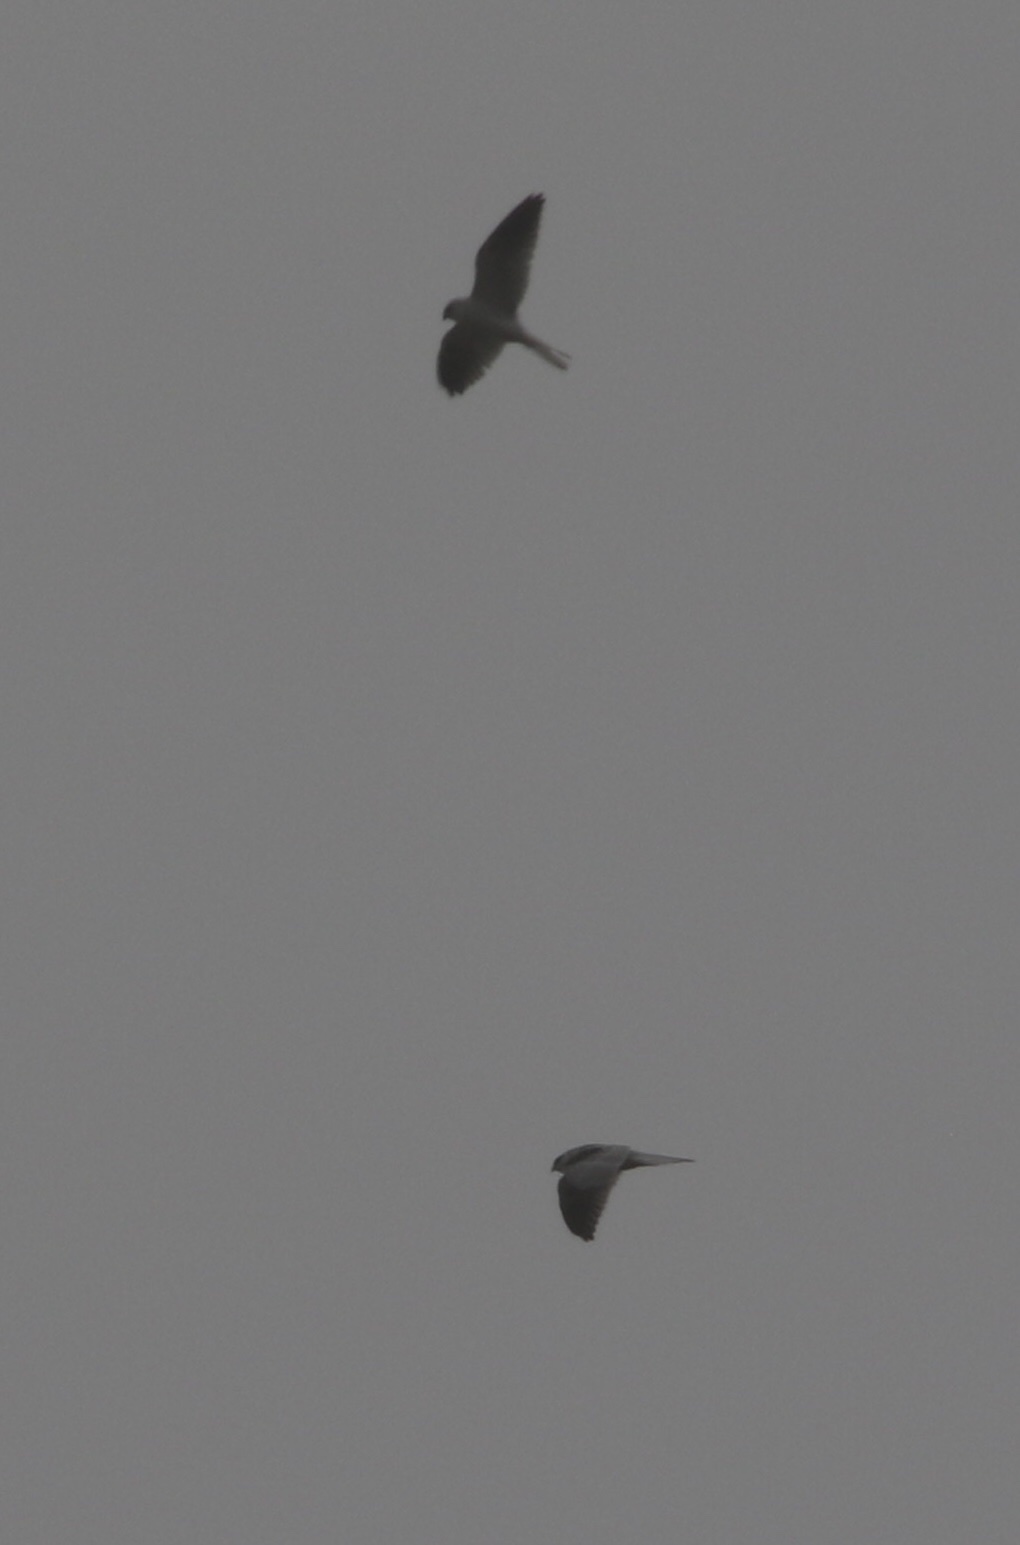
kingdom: Animalia
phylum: Chordata
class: Aves
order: Accipitriformes
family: Accipitridae
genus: Elanus
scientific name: Elanus leucurus
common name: White-tailed kite
